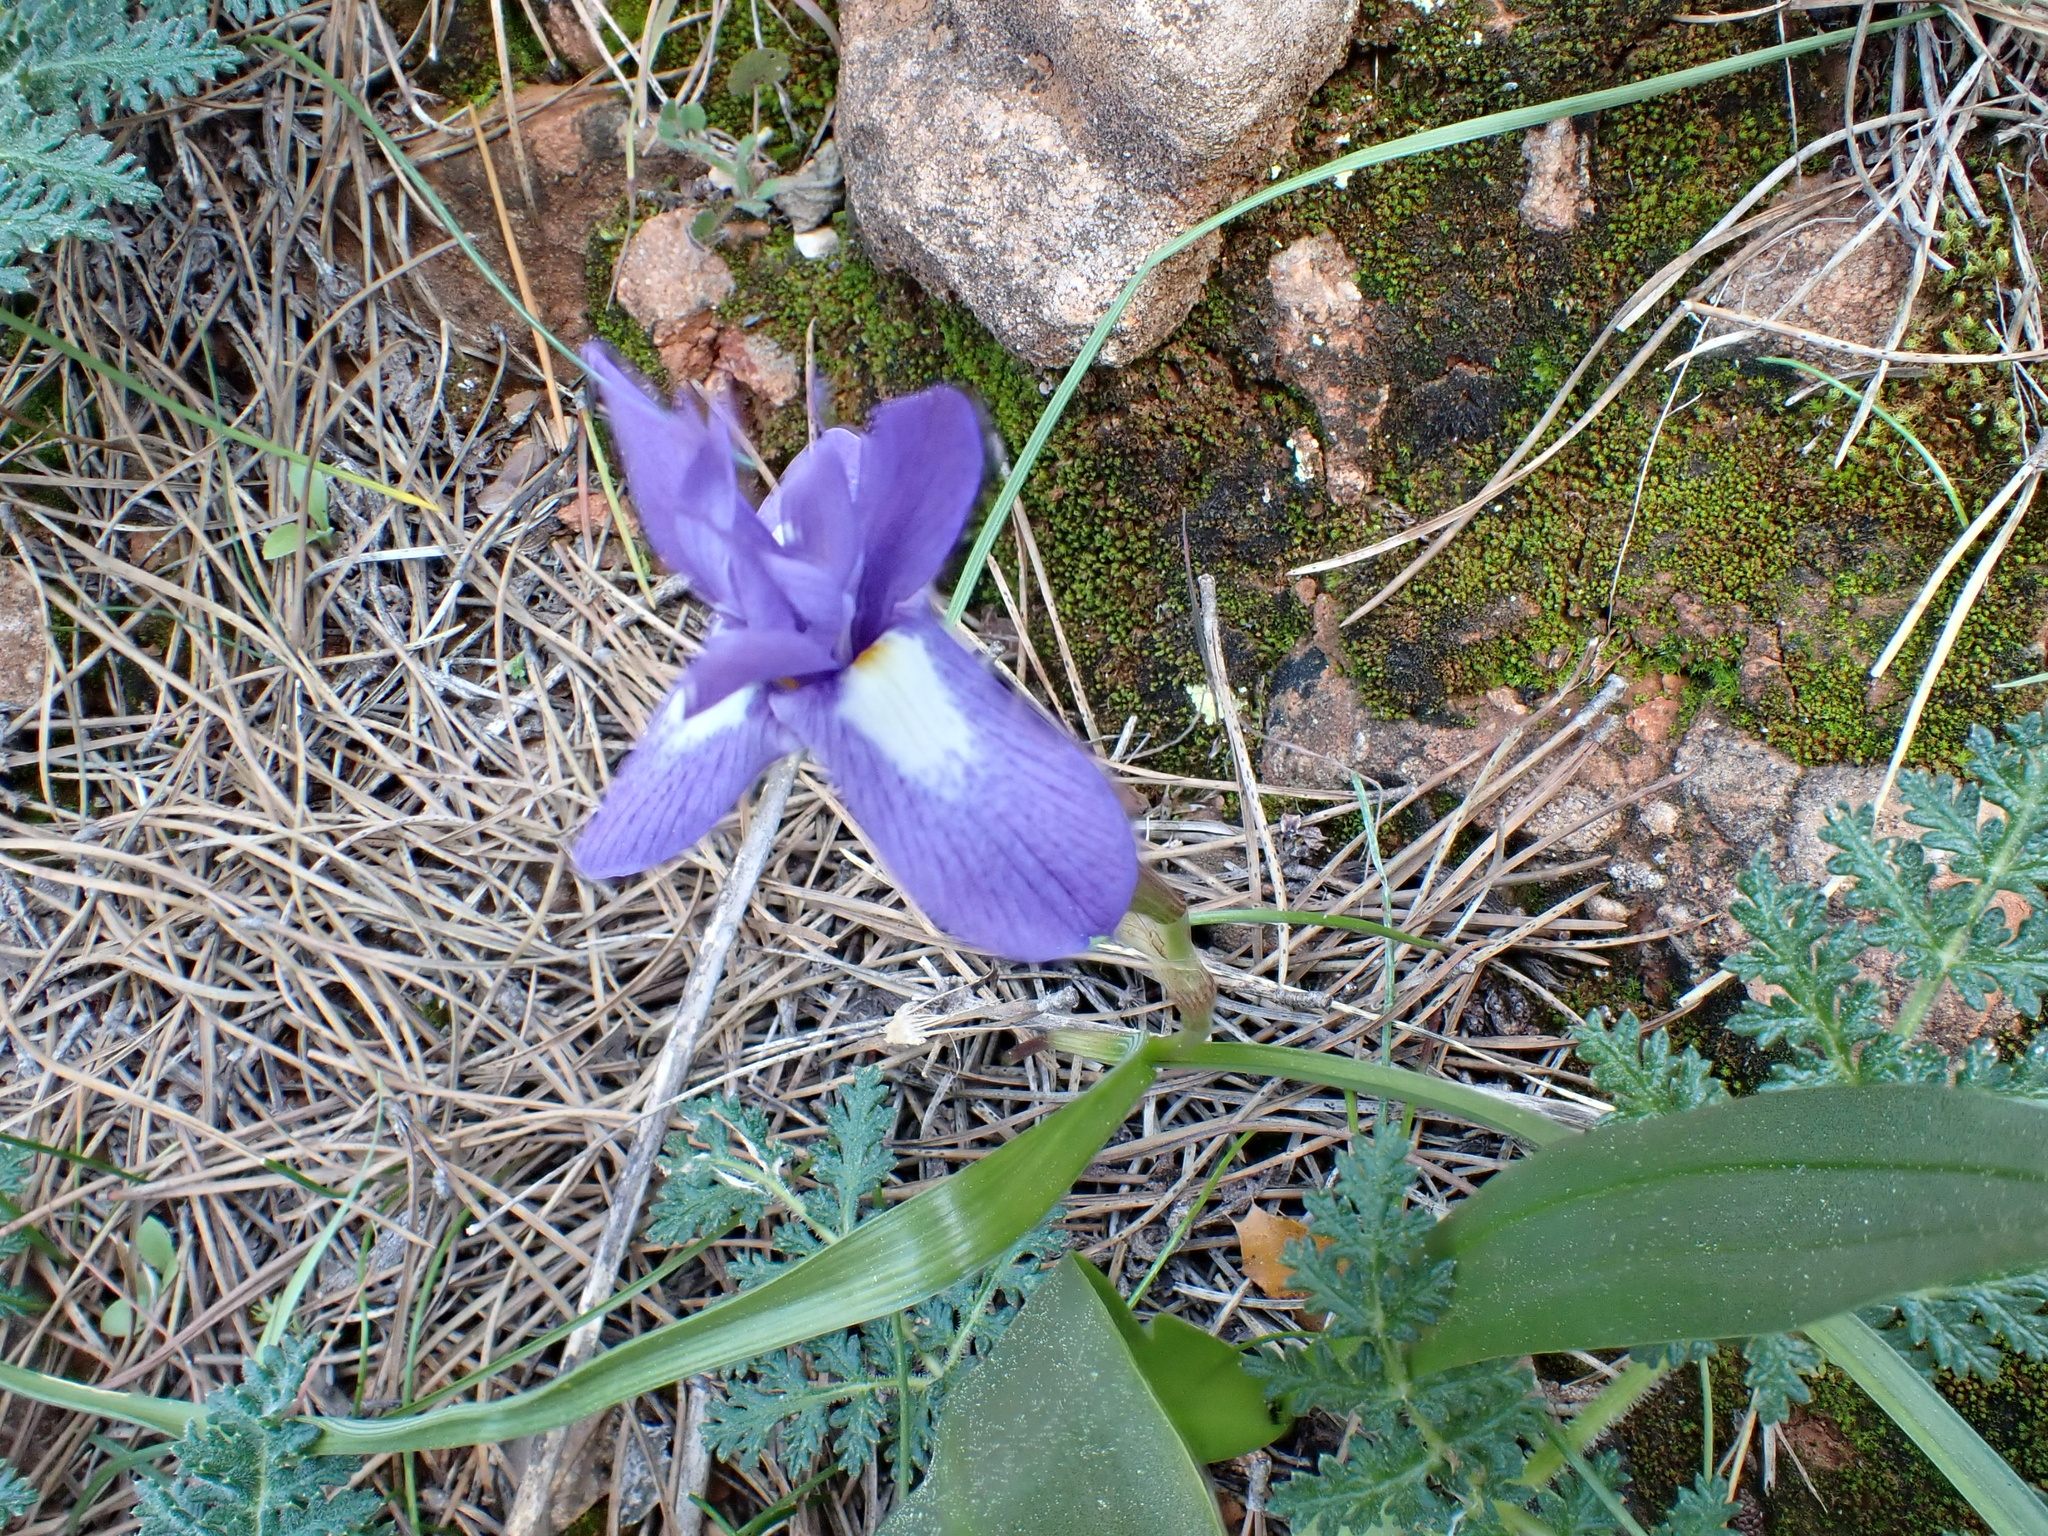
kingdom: Plantae
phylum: Tracheophyta
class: Liliopsida
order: Asparagales
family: Iridaceae
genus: Moraea
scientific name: Moraea sisyrinchium
